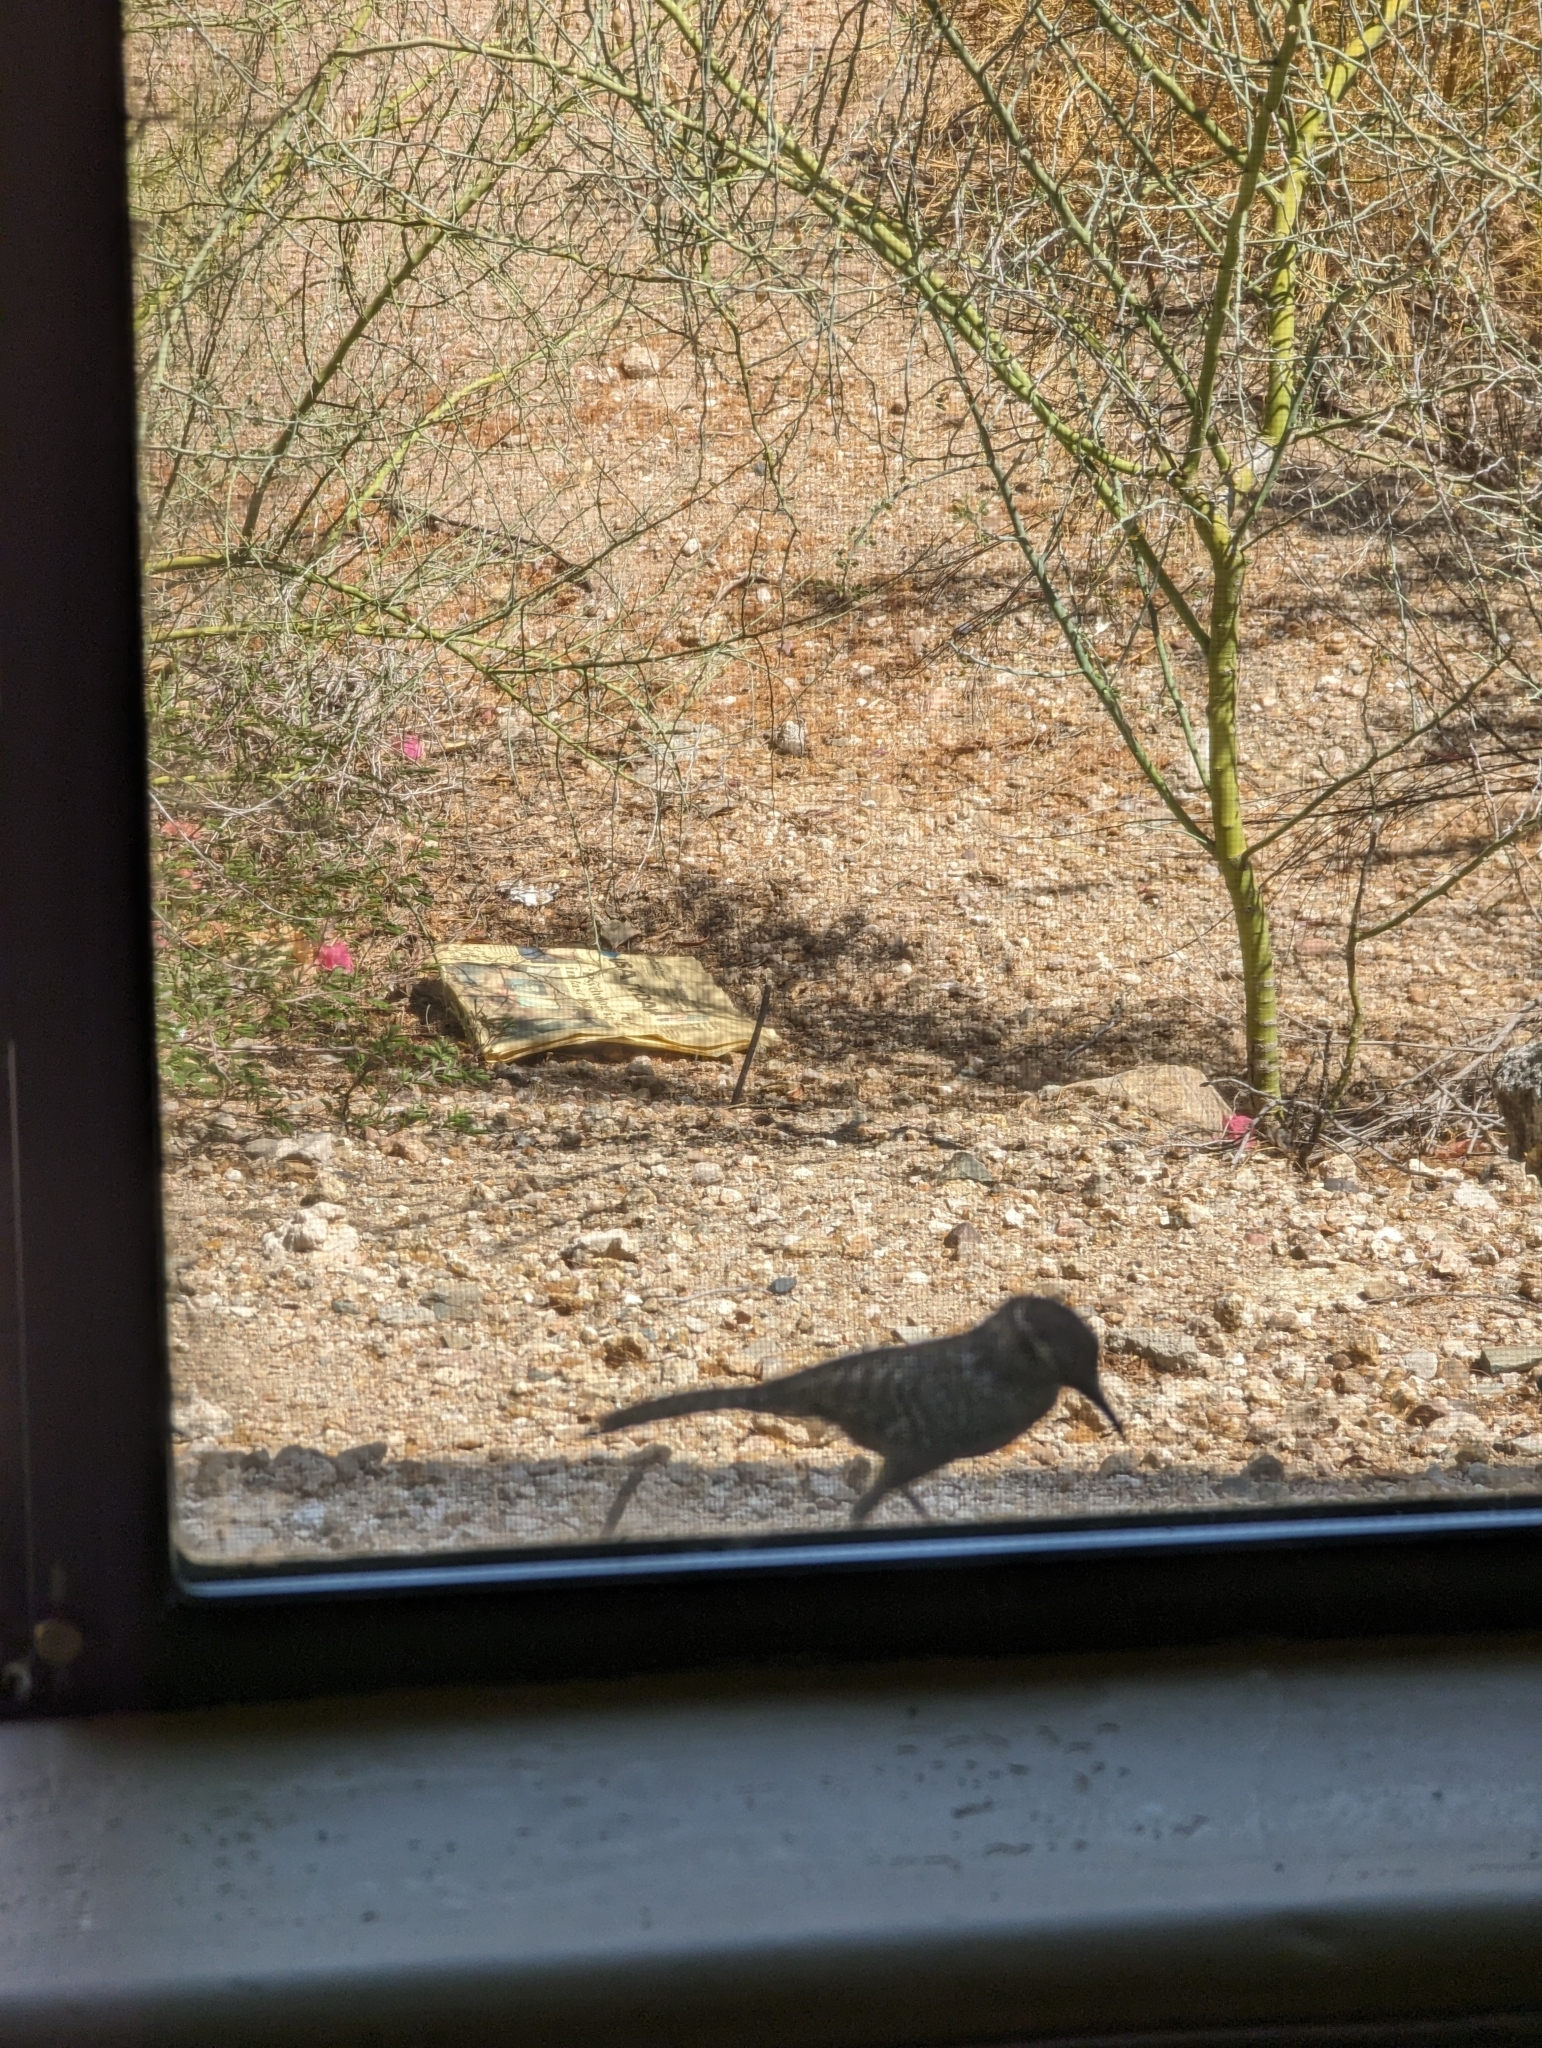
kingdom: Animalia
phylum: Chordata
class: Aves
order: Passeriformes
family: Troglodytidae
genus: Campylorhynchus
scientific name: Campylorhynchus brunneicapillus
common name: Cactus wren
